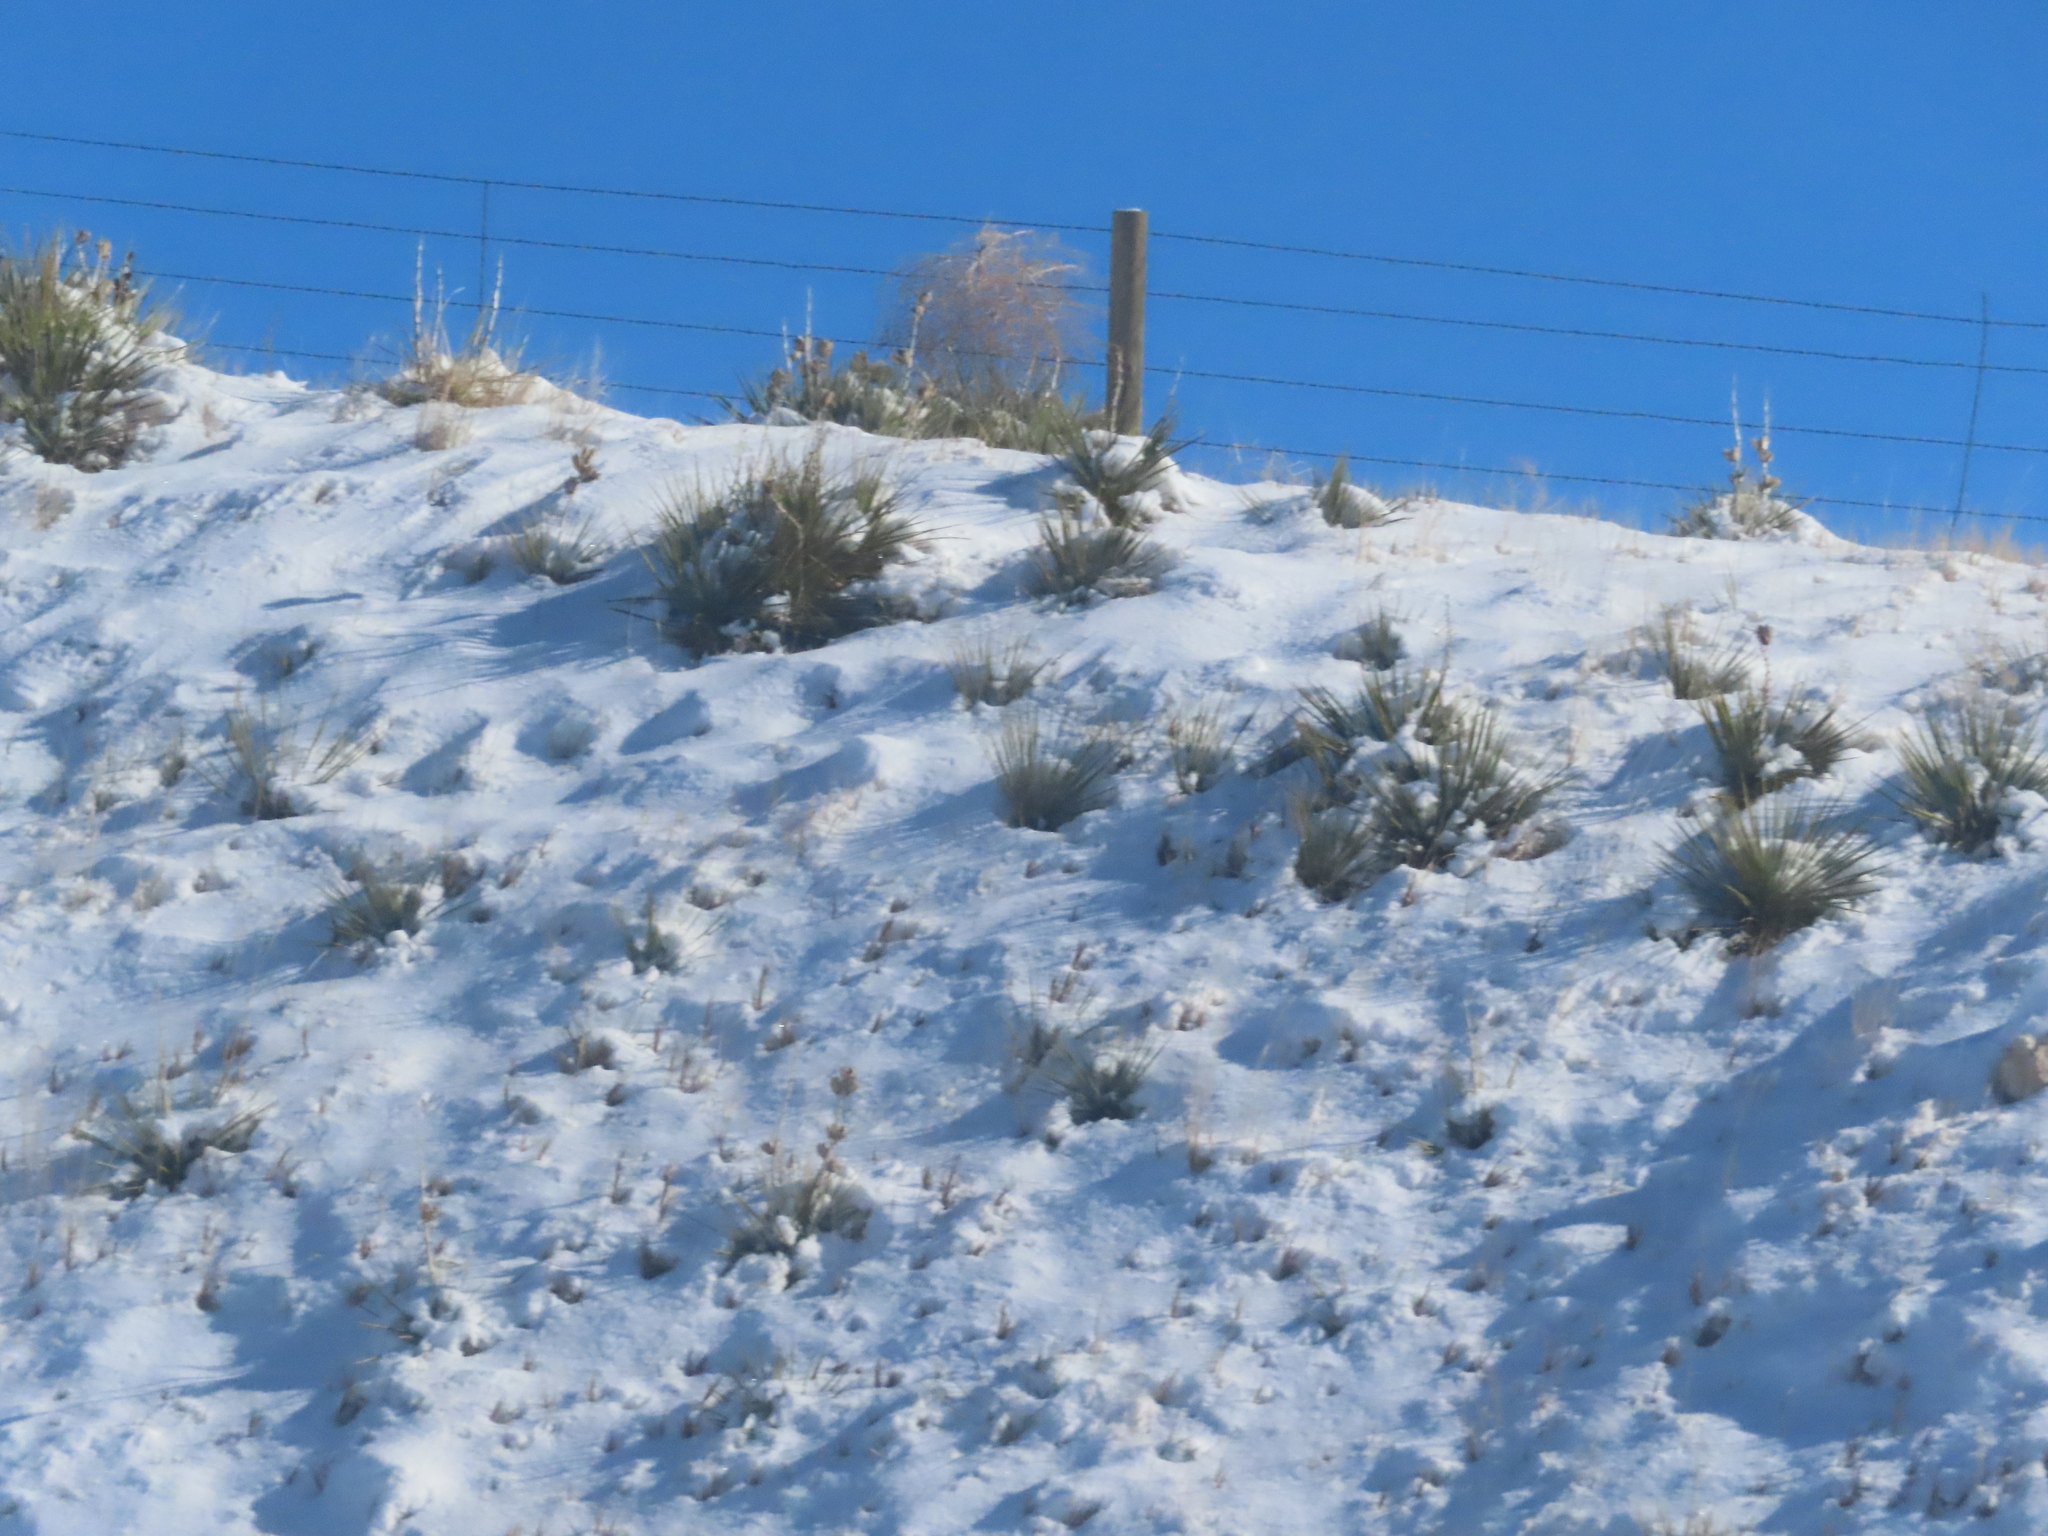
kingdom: Plantae
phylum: Tracheophyta
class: Liliopsida
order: Asparagales
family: Asparagaceae
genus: Yucca
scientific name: Yucca glauca
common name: Great plains yucca
